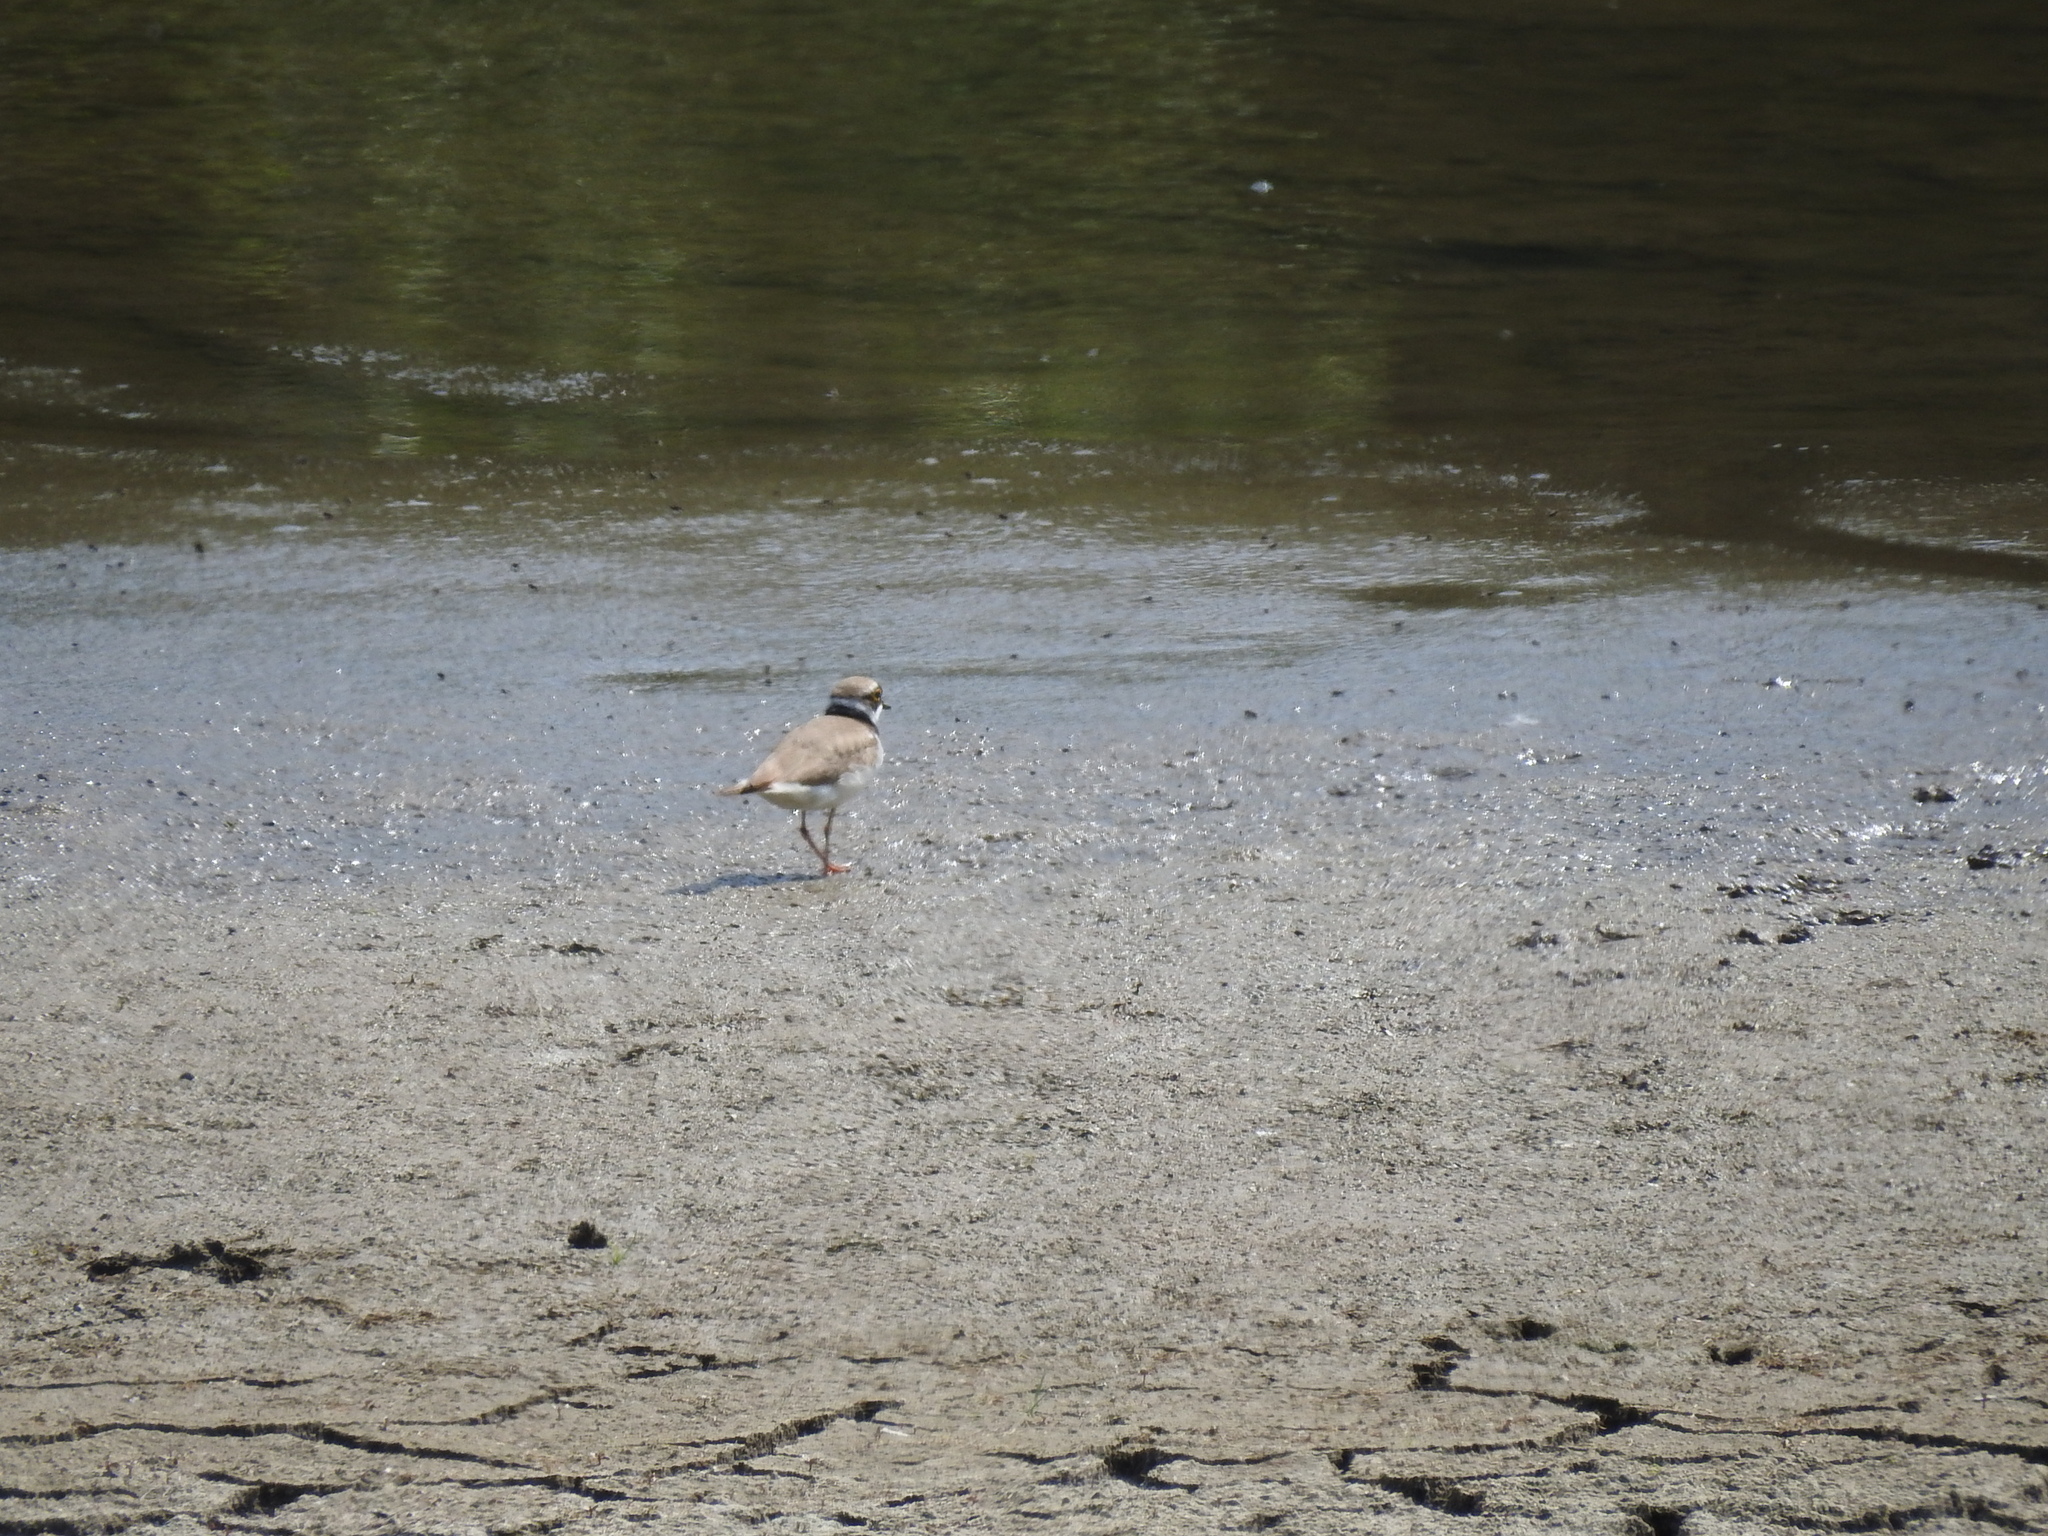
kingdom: Animalia
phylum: Chordata
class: Aves
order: Charadriiformes
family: Charadriidae
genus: Charadrius
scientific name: Charadrius dubius
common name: Little ringed plover
